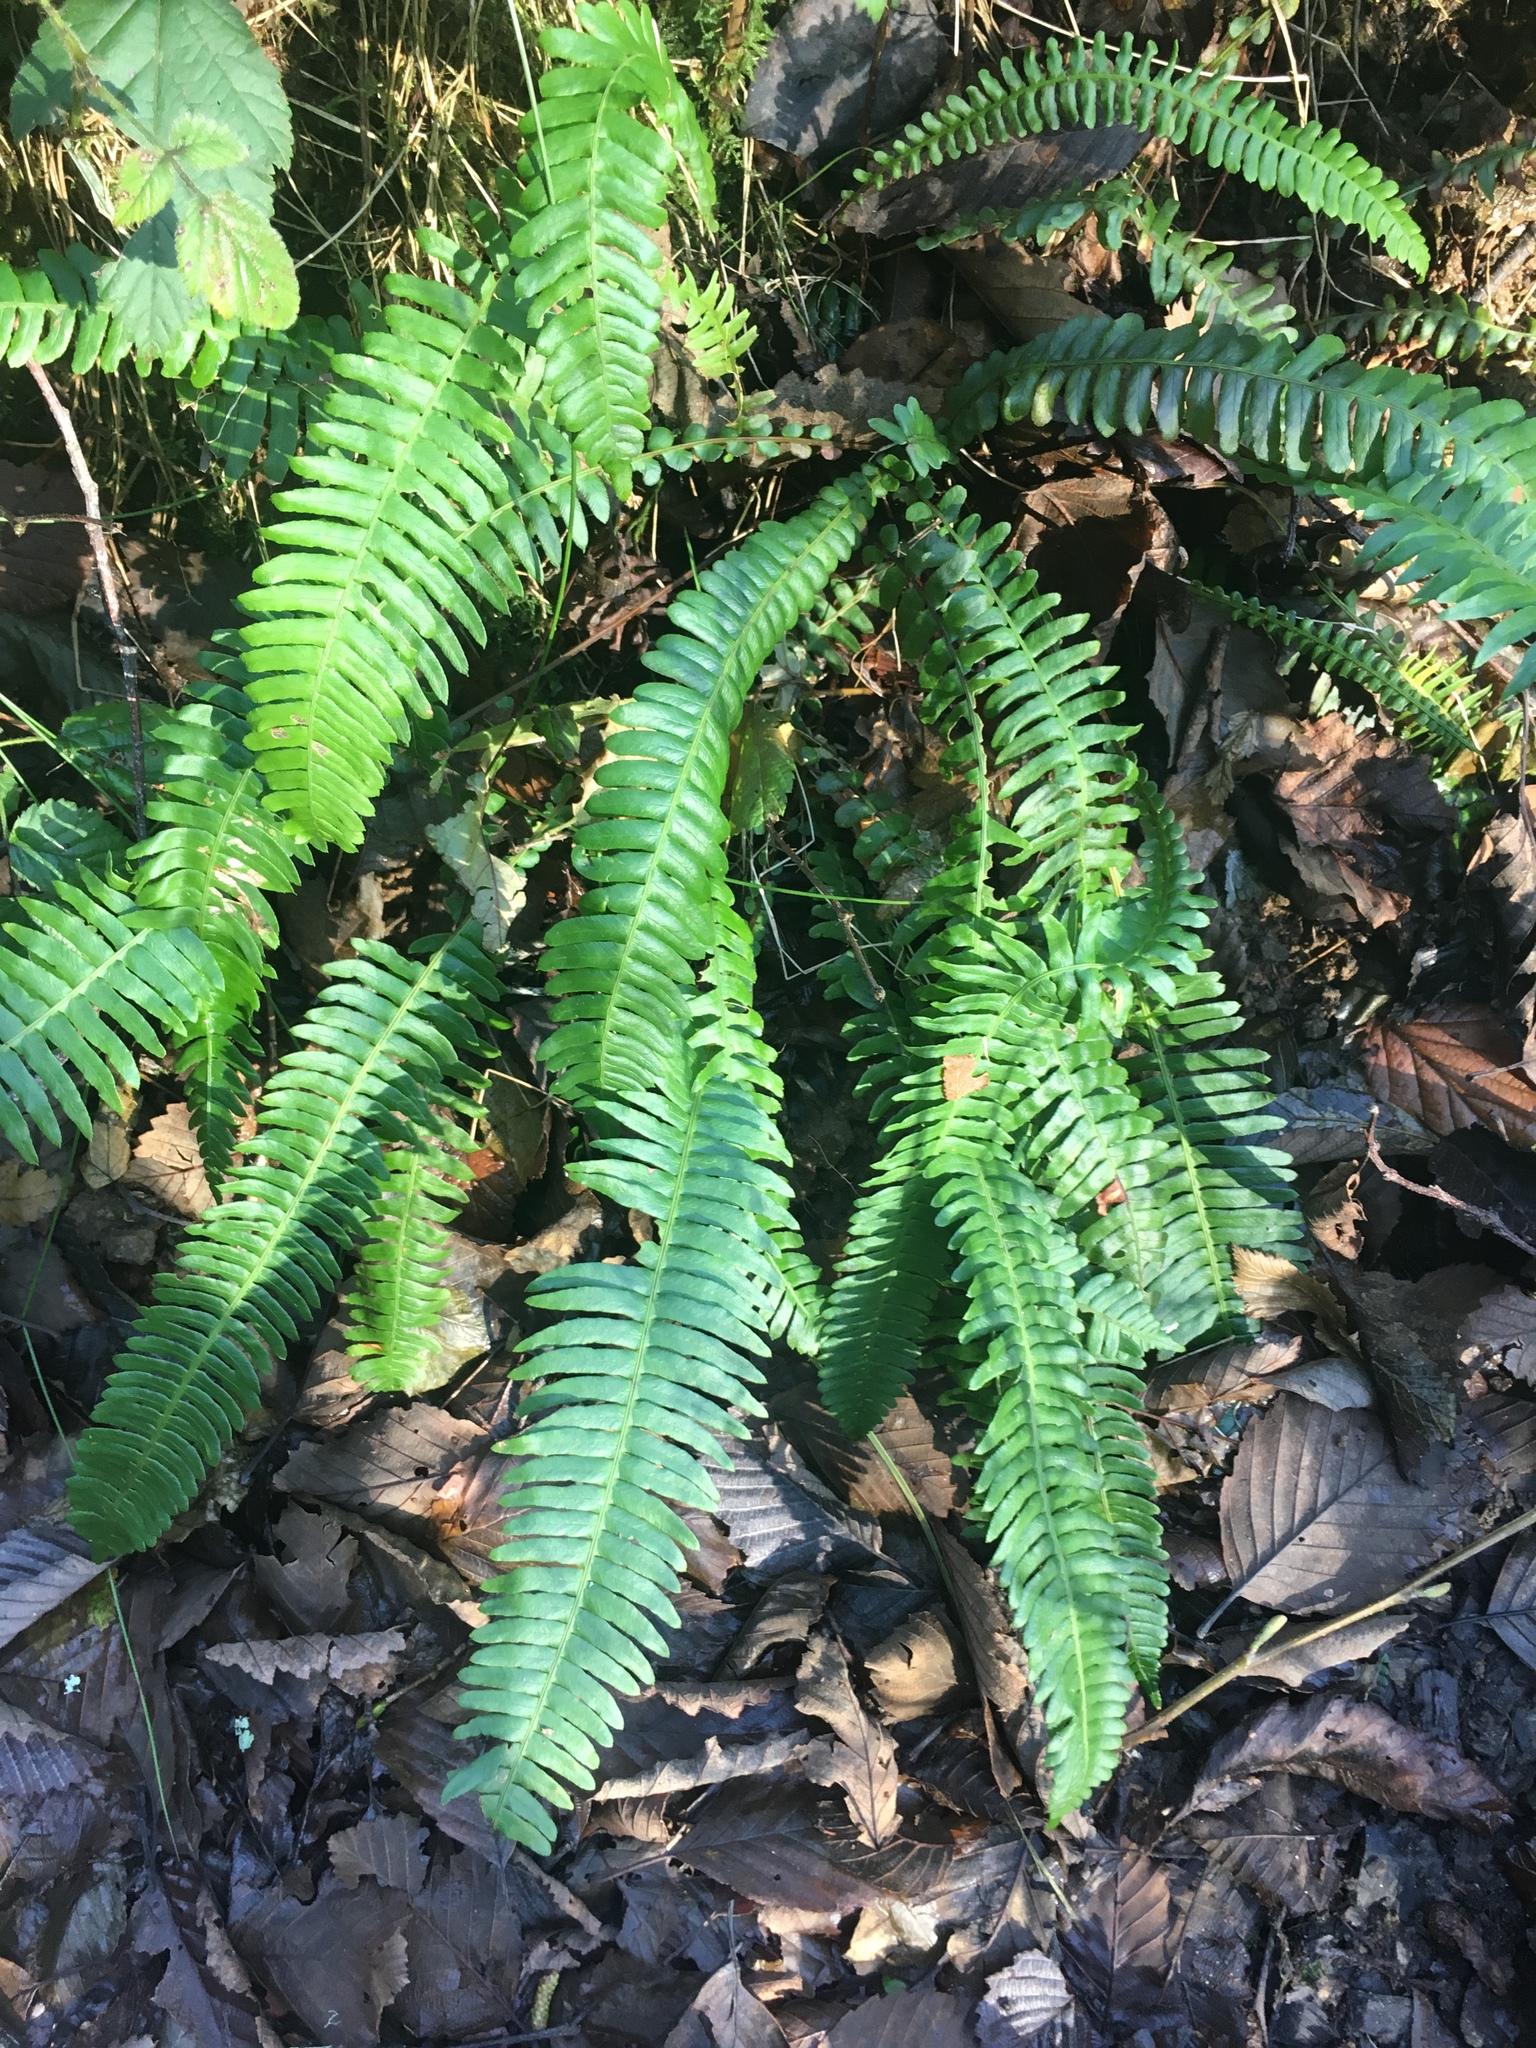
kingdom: Plantae
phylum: Tracheophyta
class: Polypodiopsida
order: Polypodiales
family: Blechnaceae
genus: Struthiopteris
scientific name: Struthiopteris spicant
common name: Deer fern
